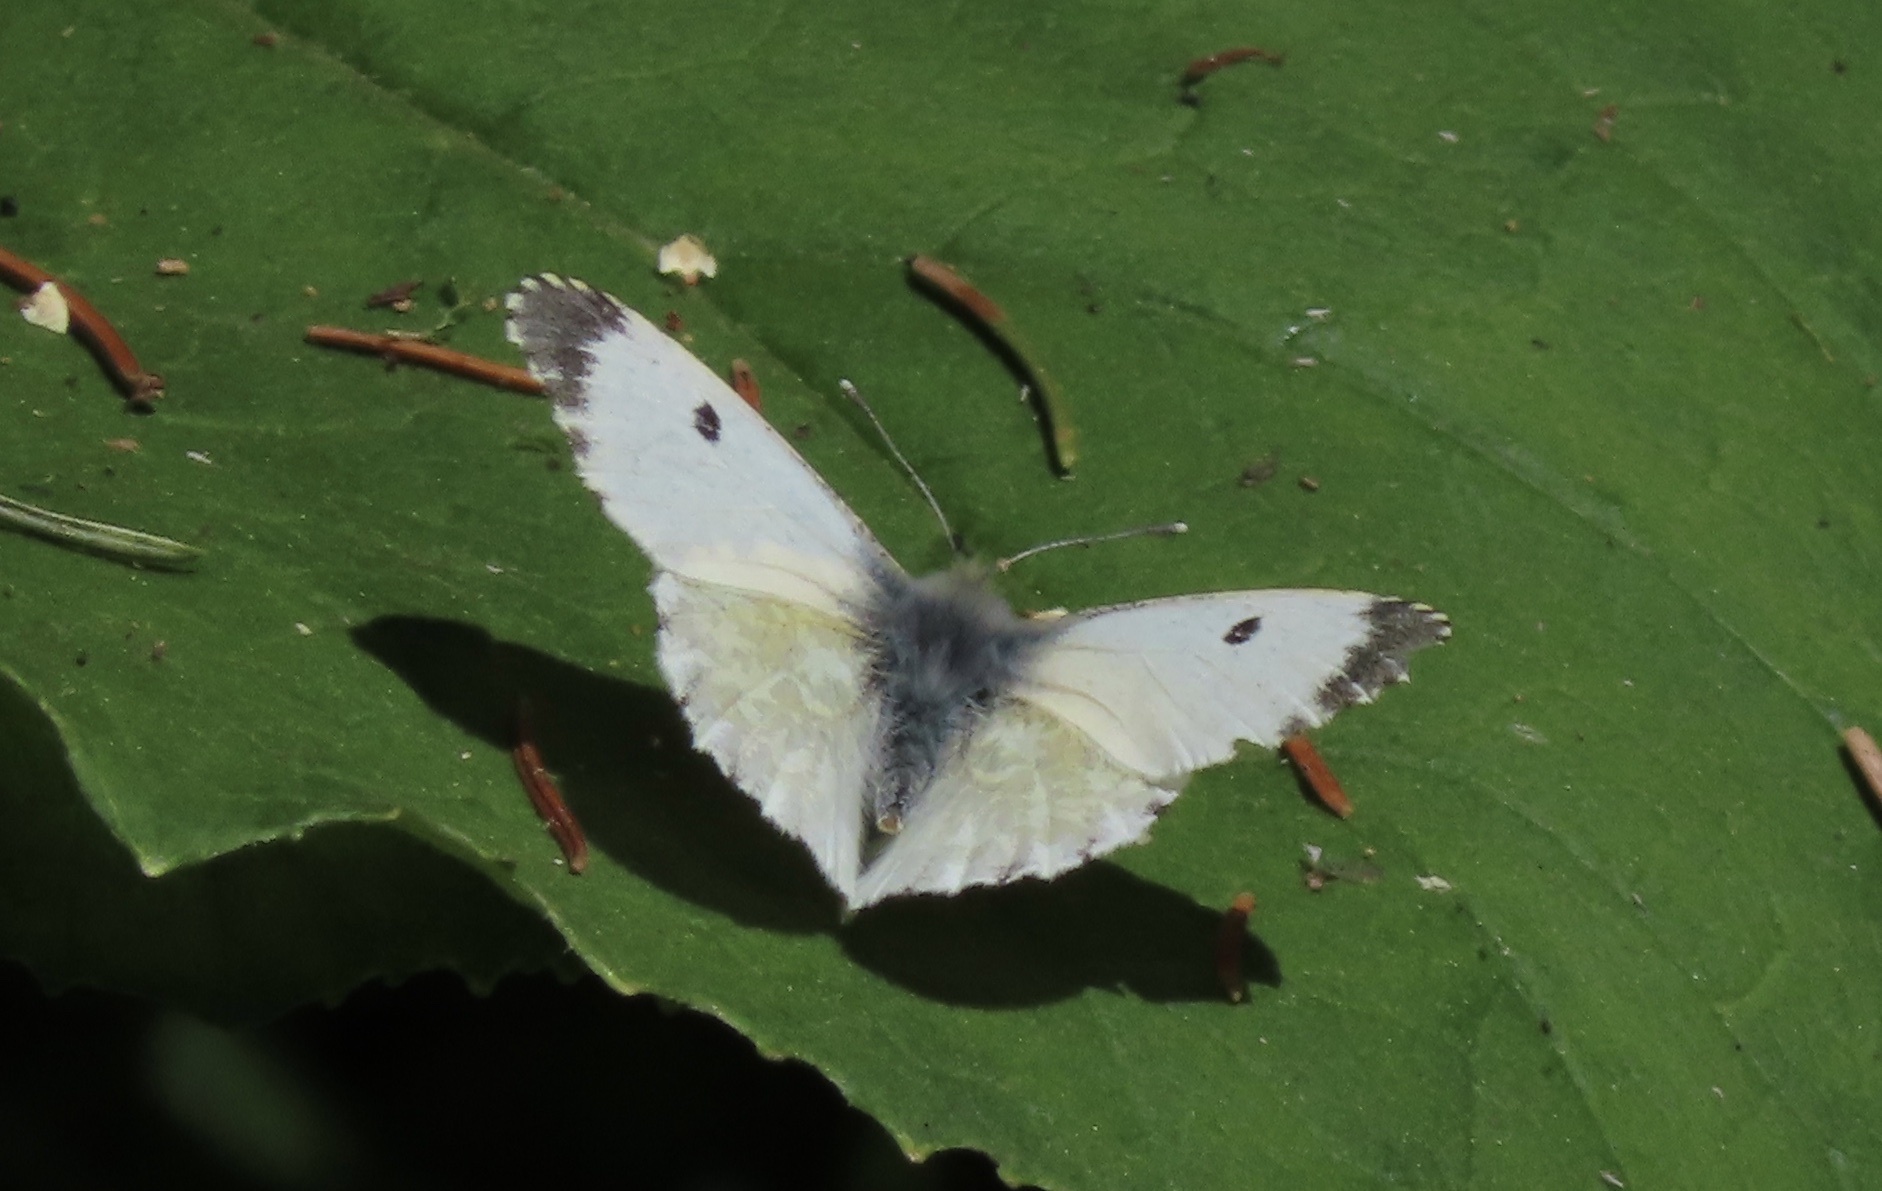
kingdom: Animalia
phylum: Arthropoda
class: Insecta
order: Lepidoptera
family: Pieridae
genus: Anthocharis
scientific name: Anthocharis cardamines
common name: Orange-tip
